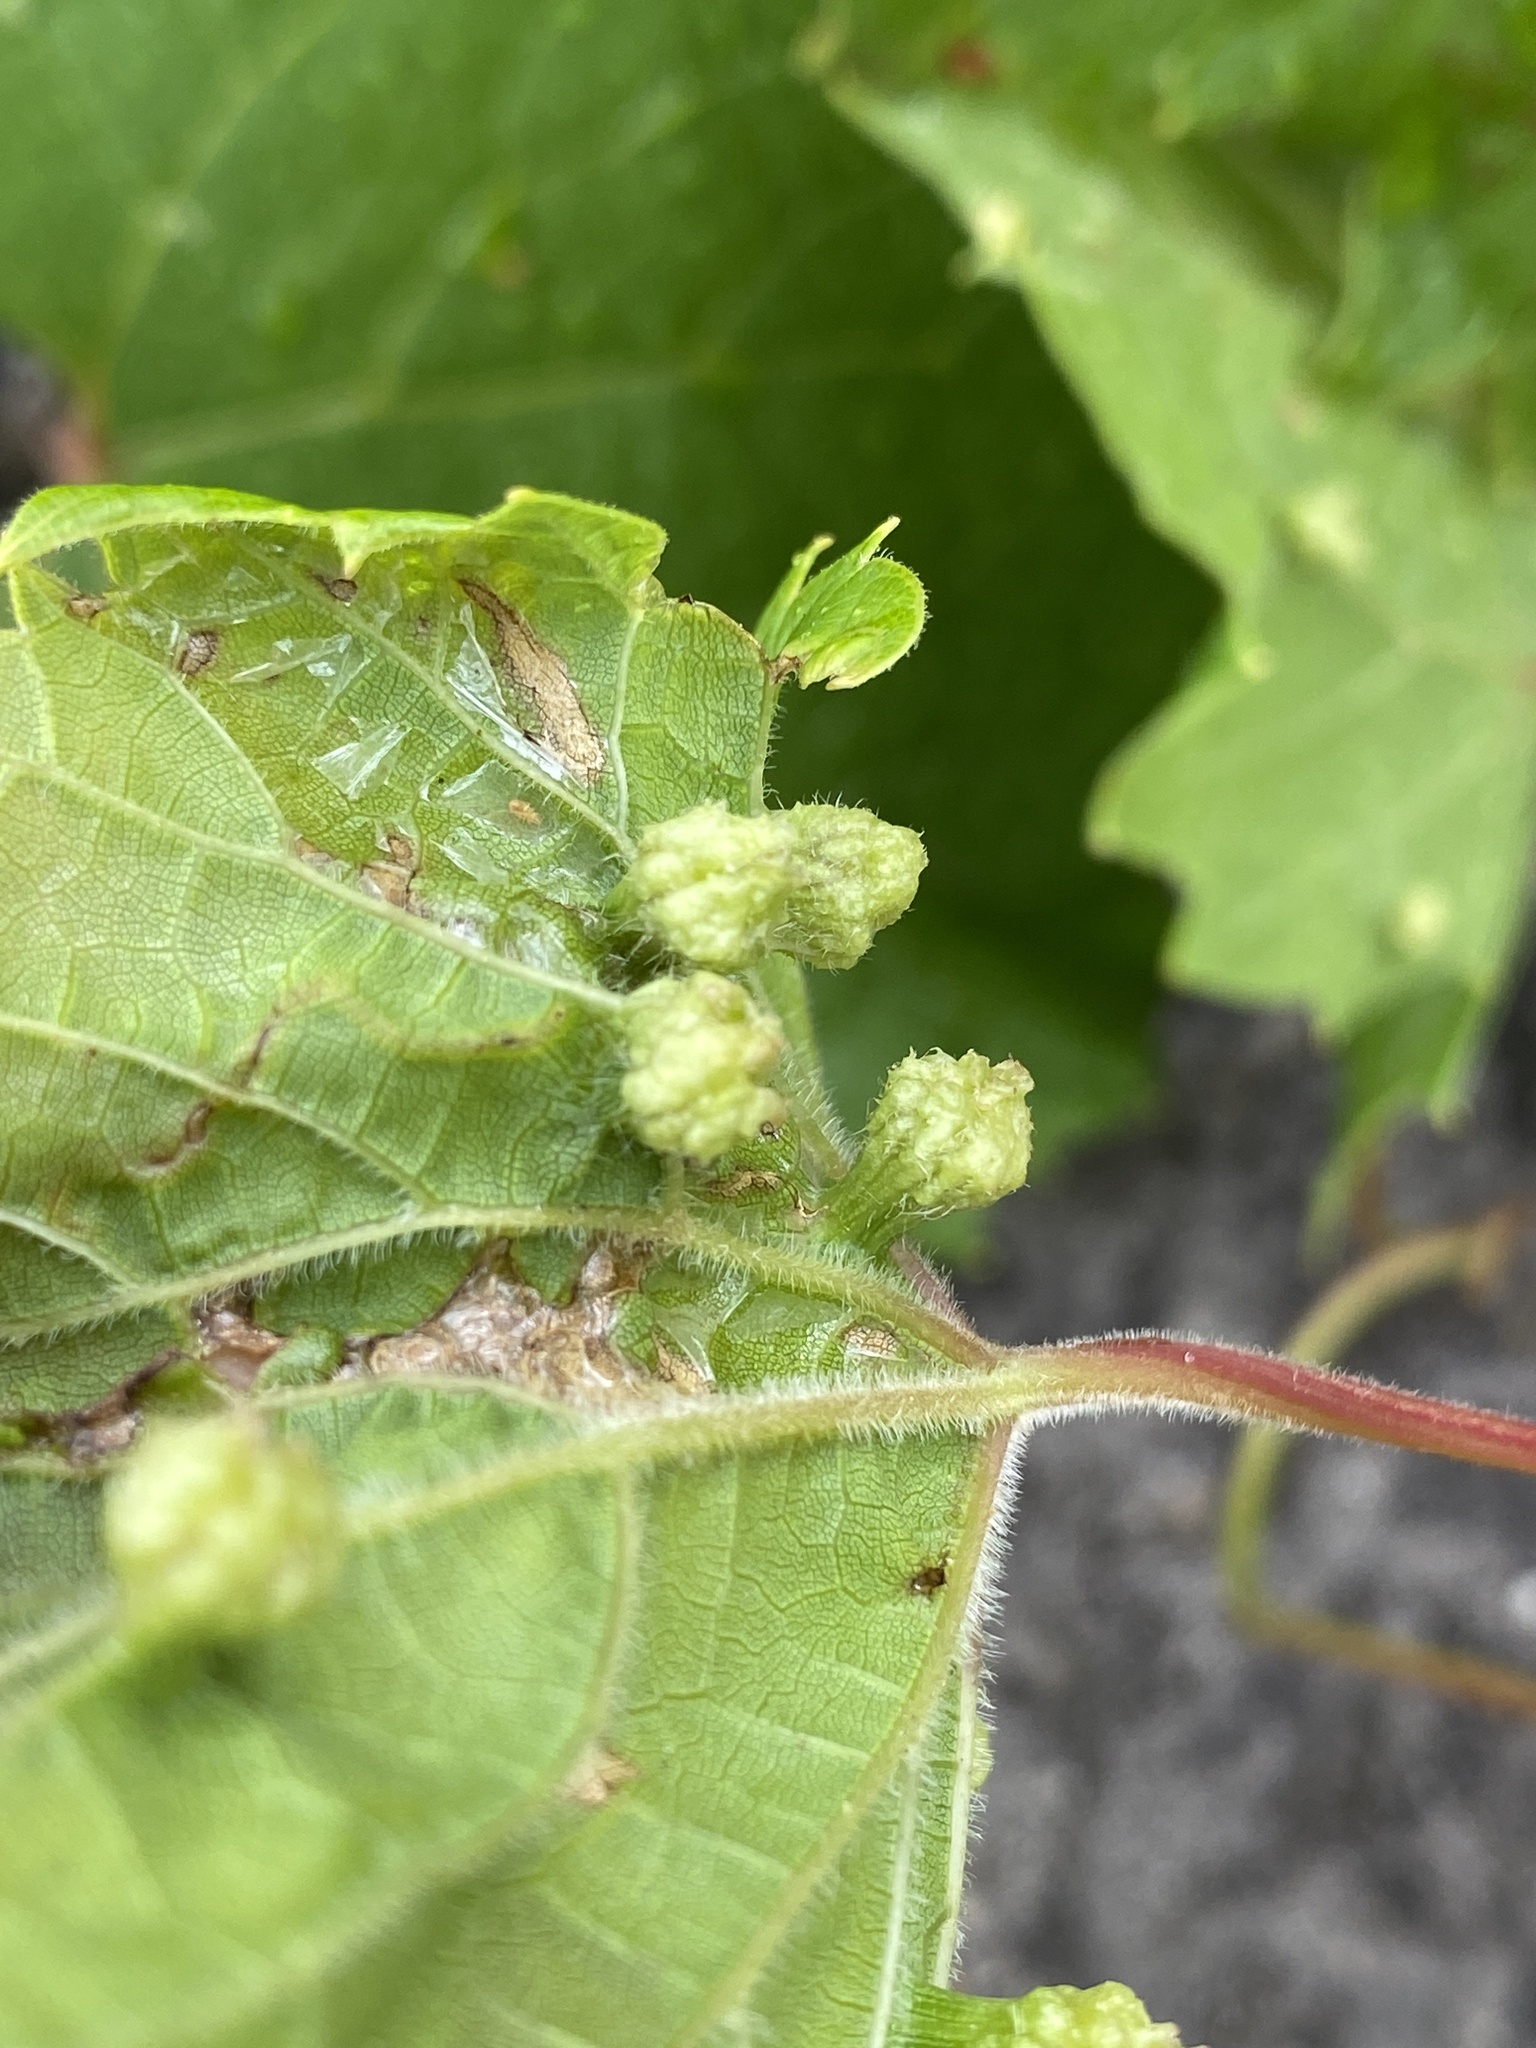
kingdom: Animalia
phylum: Arthropoda
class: Insecta
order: Hemiptera
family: Phylloxeridae
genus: Daktulosphaira
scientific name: Daktulosphaira vitifoliae
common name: Grape phylloxera
